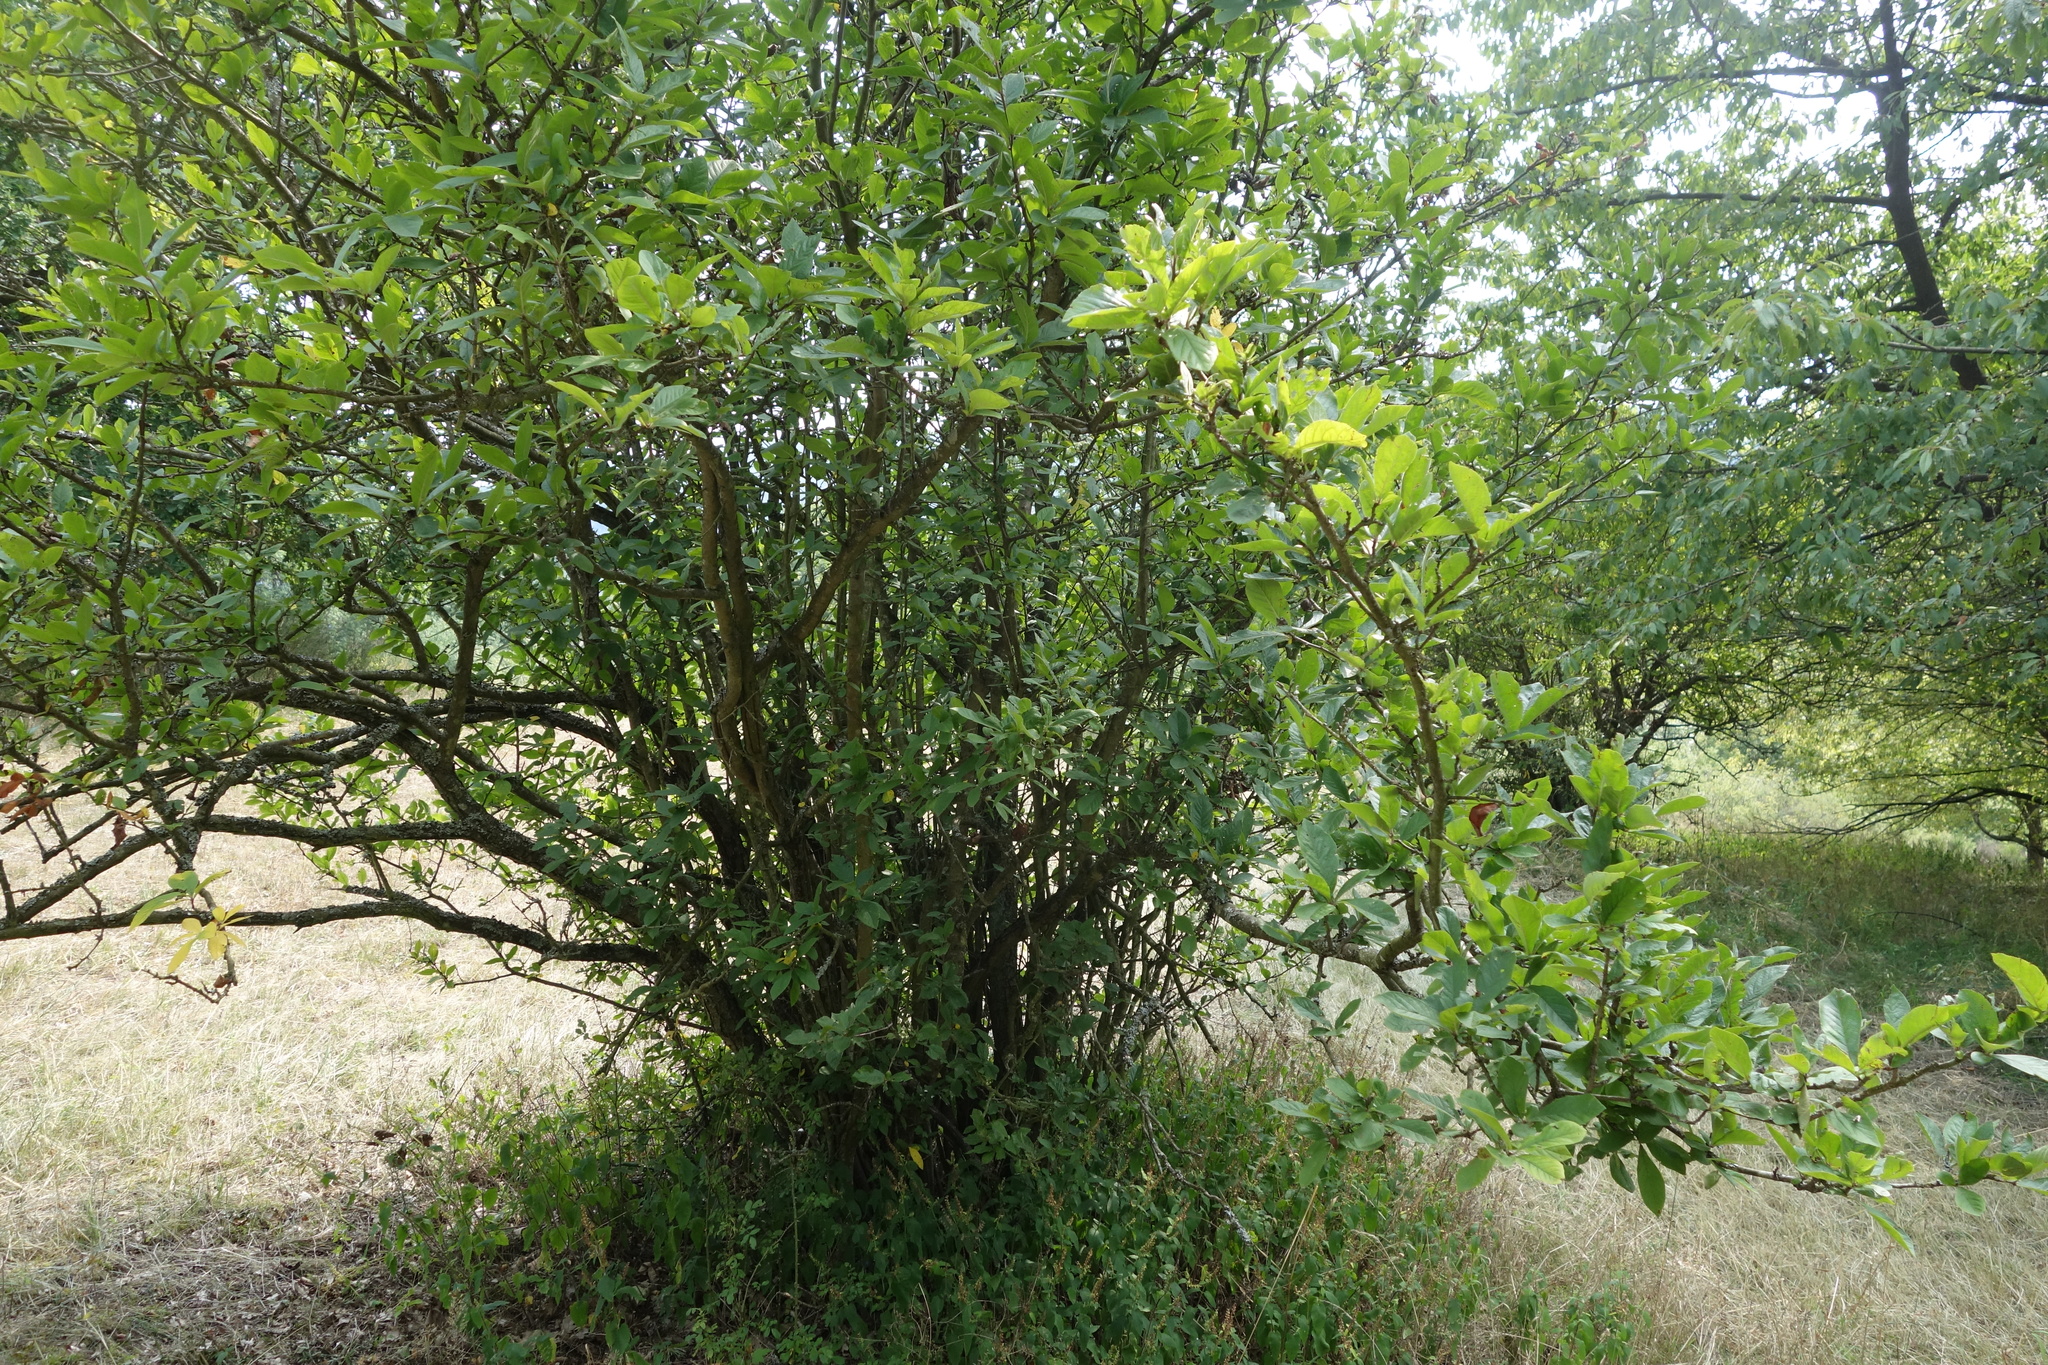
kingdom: Plantae
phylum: Tracheophyta
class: Magnoliopsida
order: Rosales
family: Rosaceae
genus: Mespilus
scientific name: Mespilus germanica
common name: Medlar
